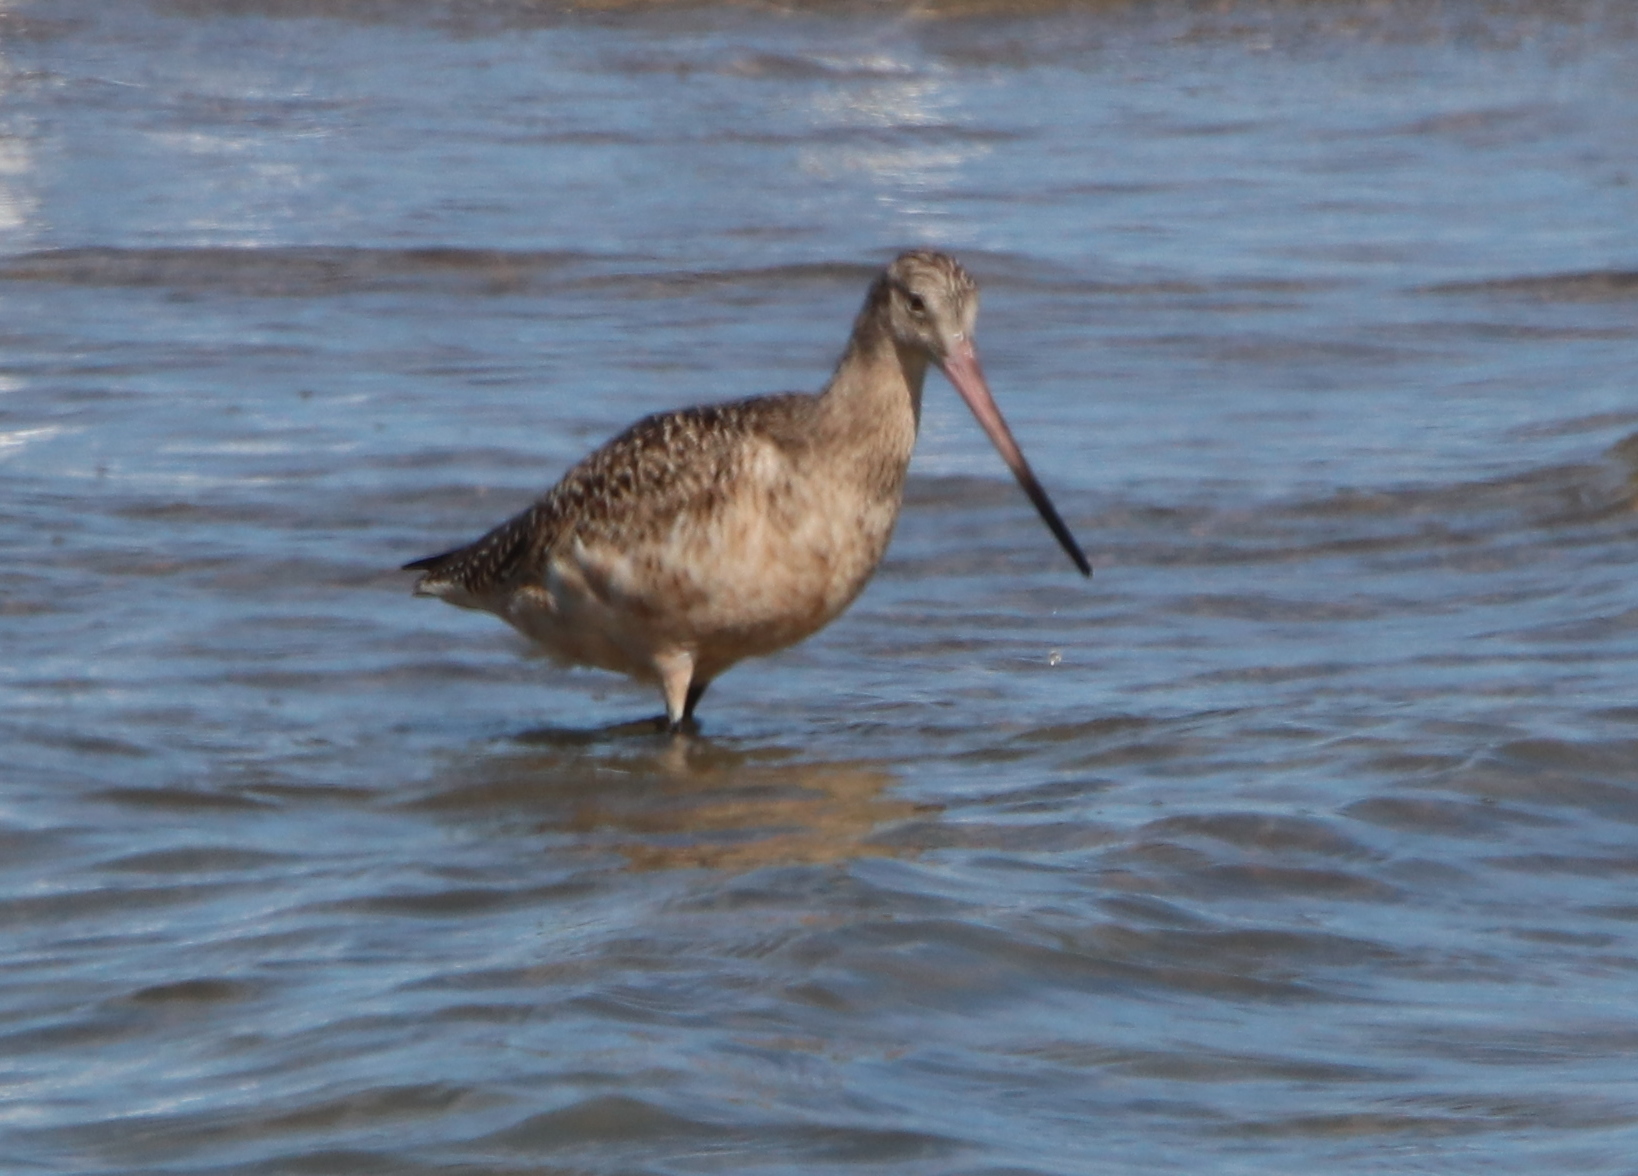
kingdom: Animalia
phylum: Chordata
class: Aves
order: Charadriiformes
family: Scolopacidae
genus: Limosa
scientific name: Limosa fedoa
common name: Marbled godwit
